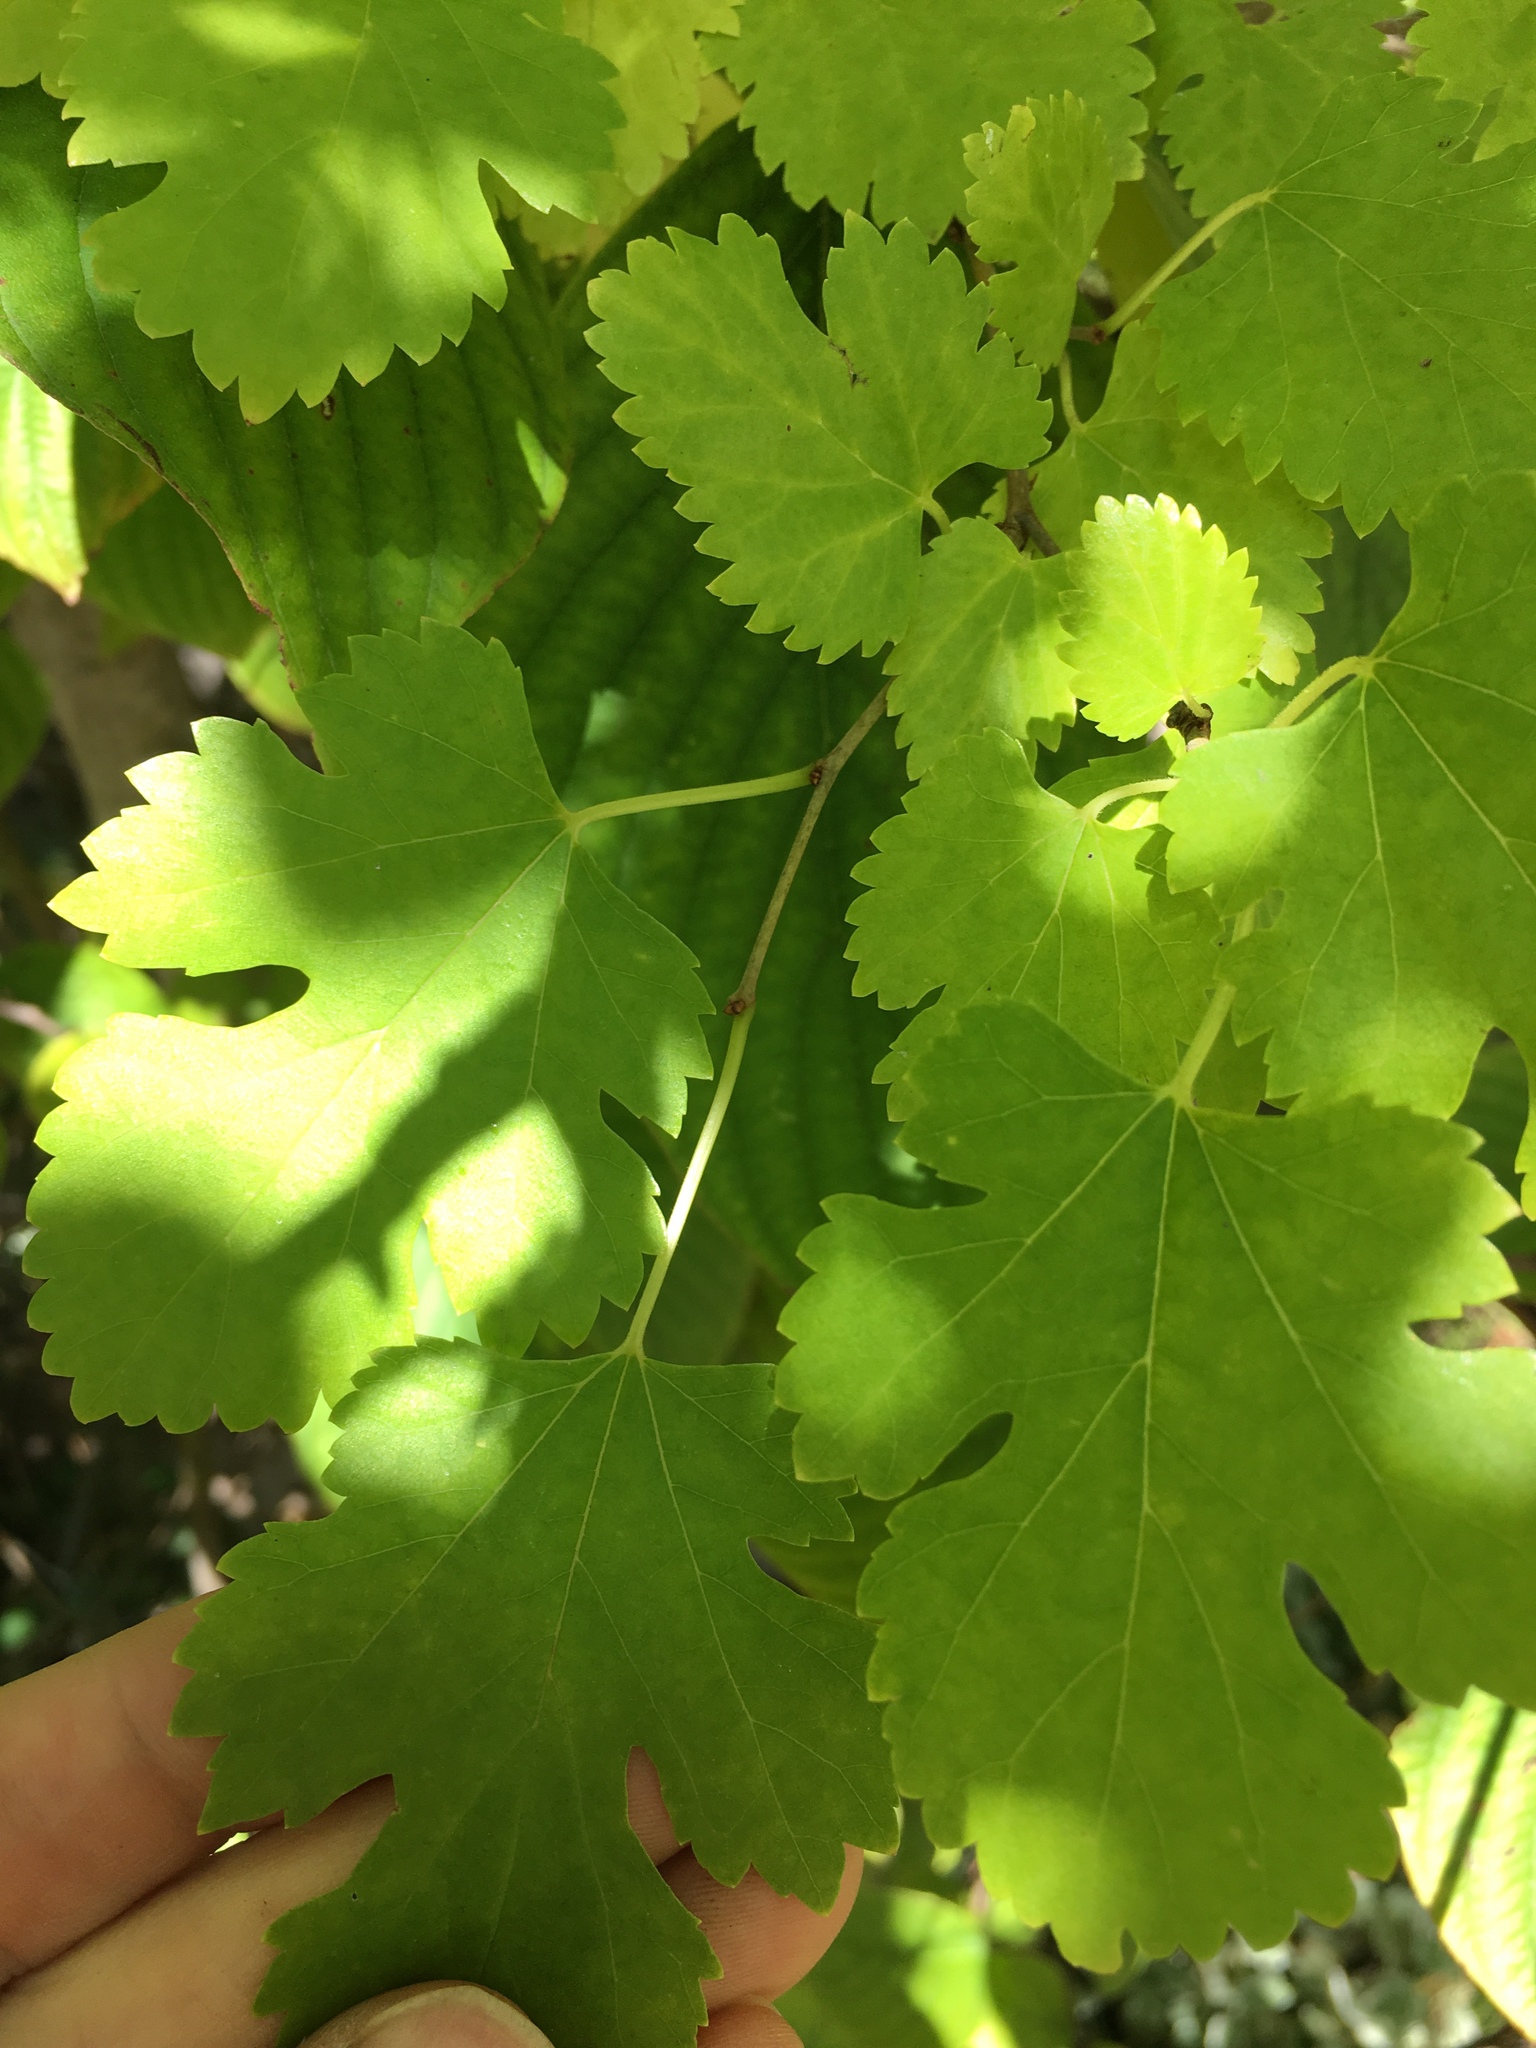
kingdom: Plantae
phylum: Tracheophyta
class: Magnoliopsida
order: Rosales
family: Moraceae
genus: Morus
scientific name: Morus alba
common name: White mulberry
